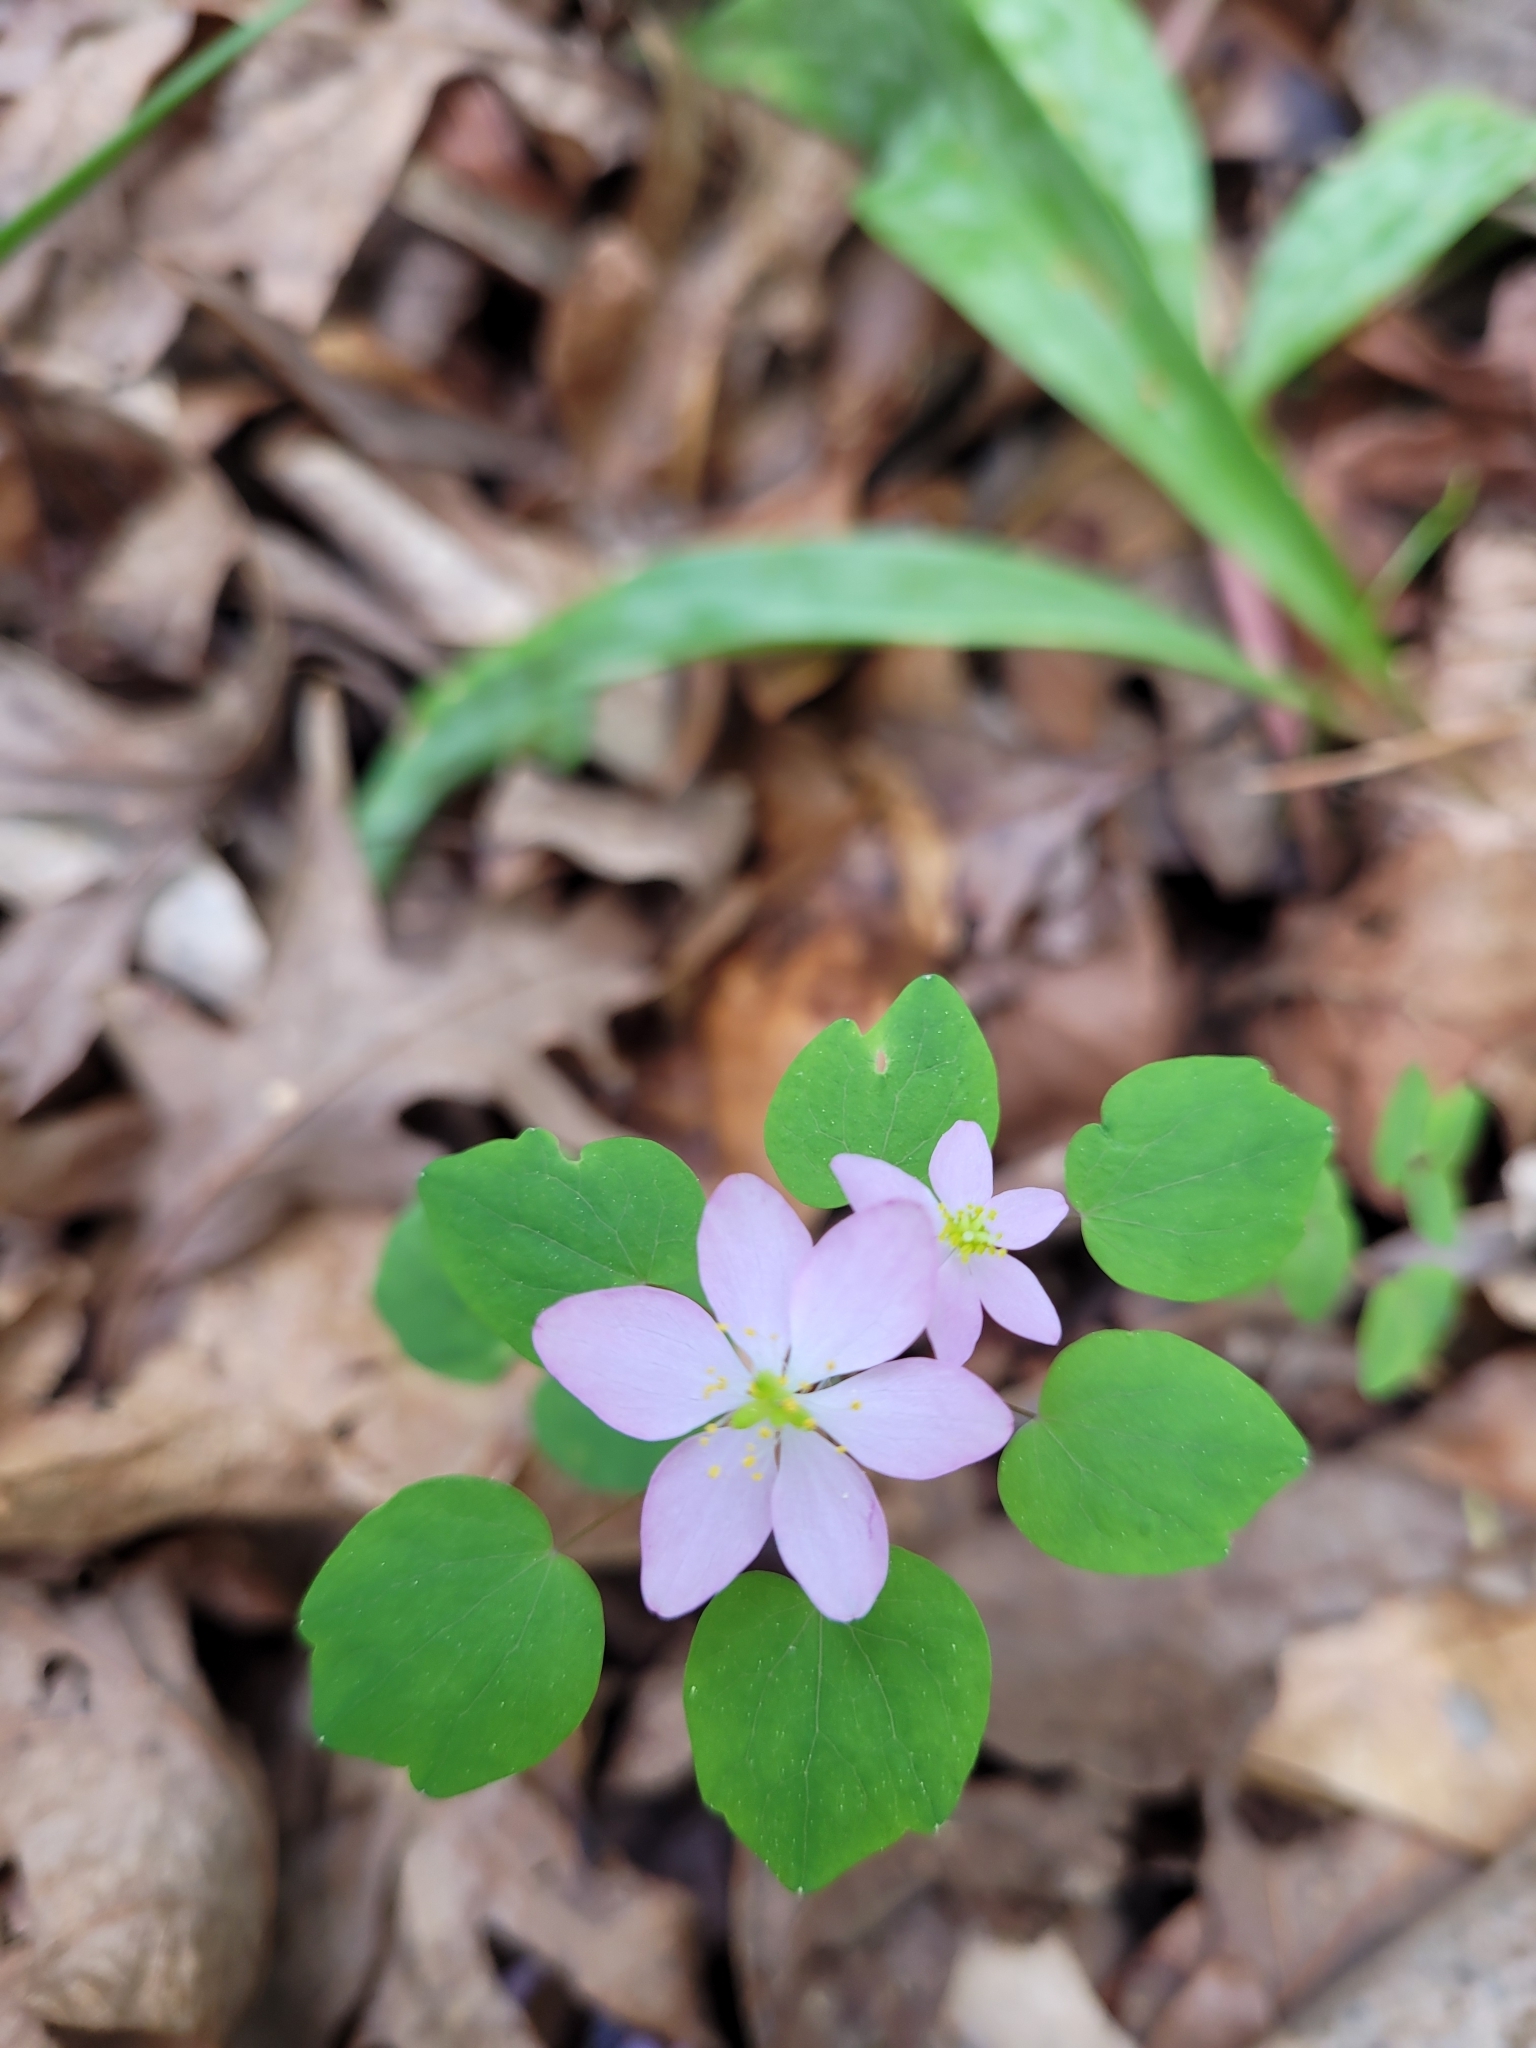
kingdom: Plantae
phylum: Tracheophyta
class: Magnoliopsida
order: Ranunculales
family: Ranunculaceae
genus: Thalictrum
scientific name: Thalictrum thalictroides
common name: Rue-anemone
